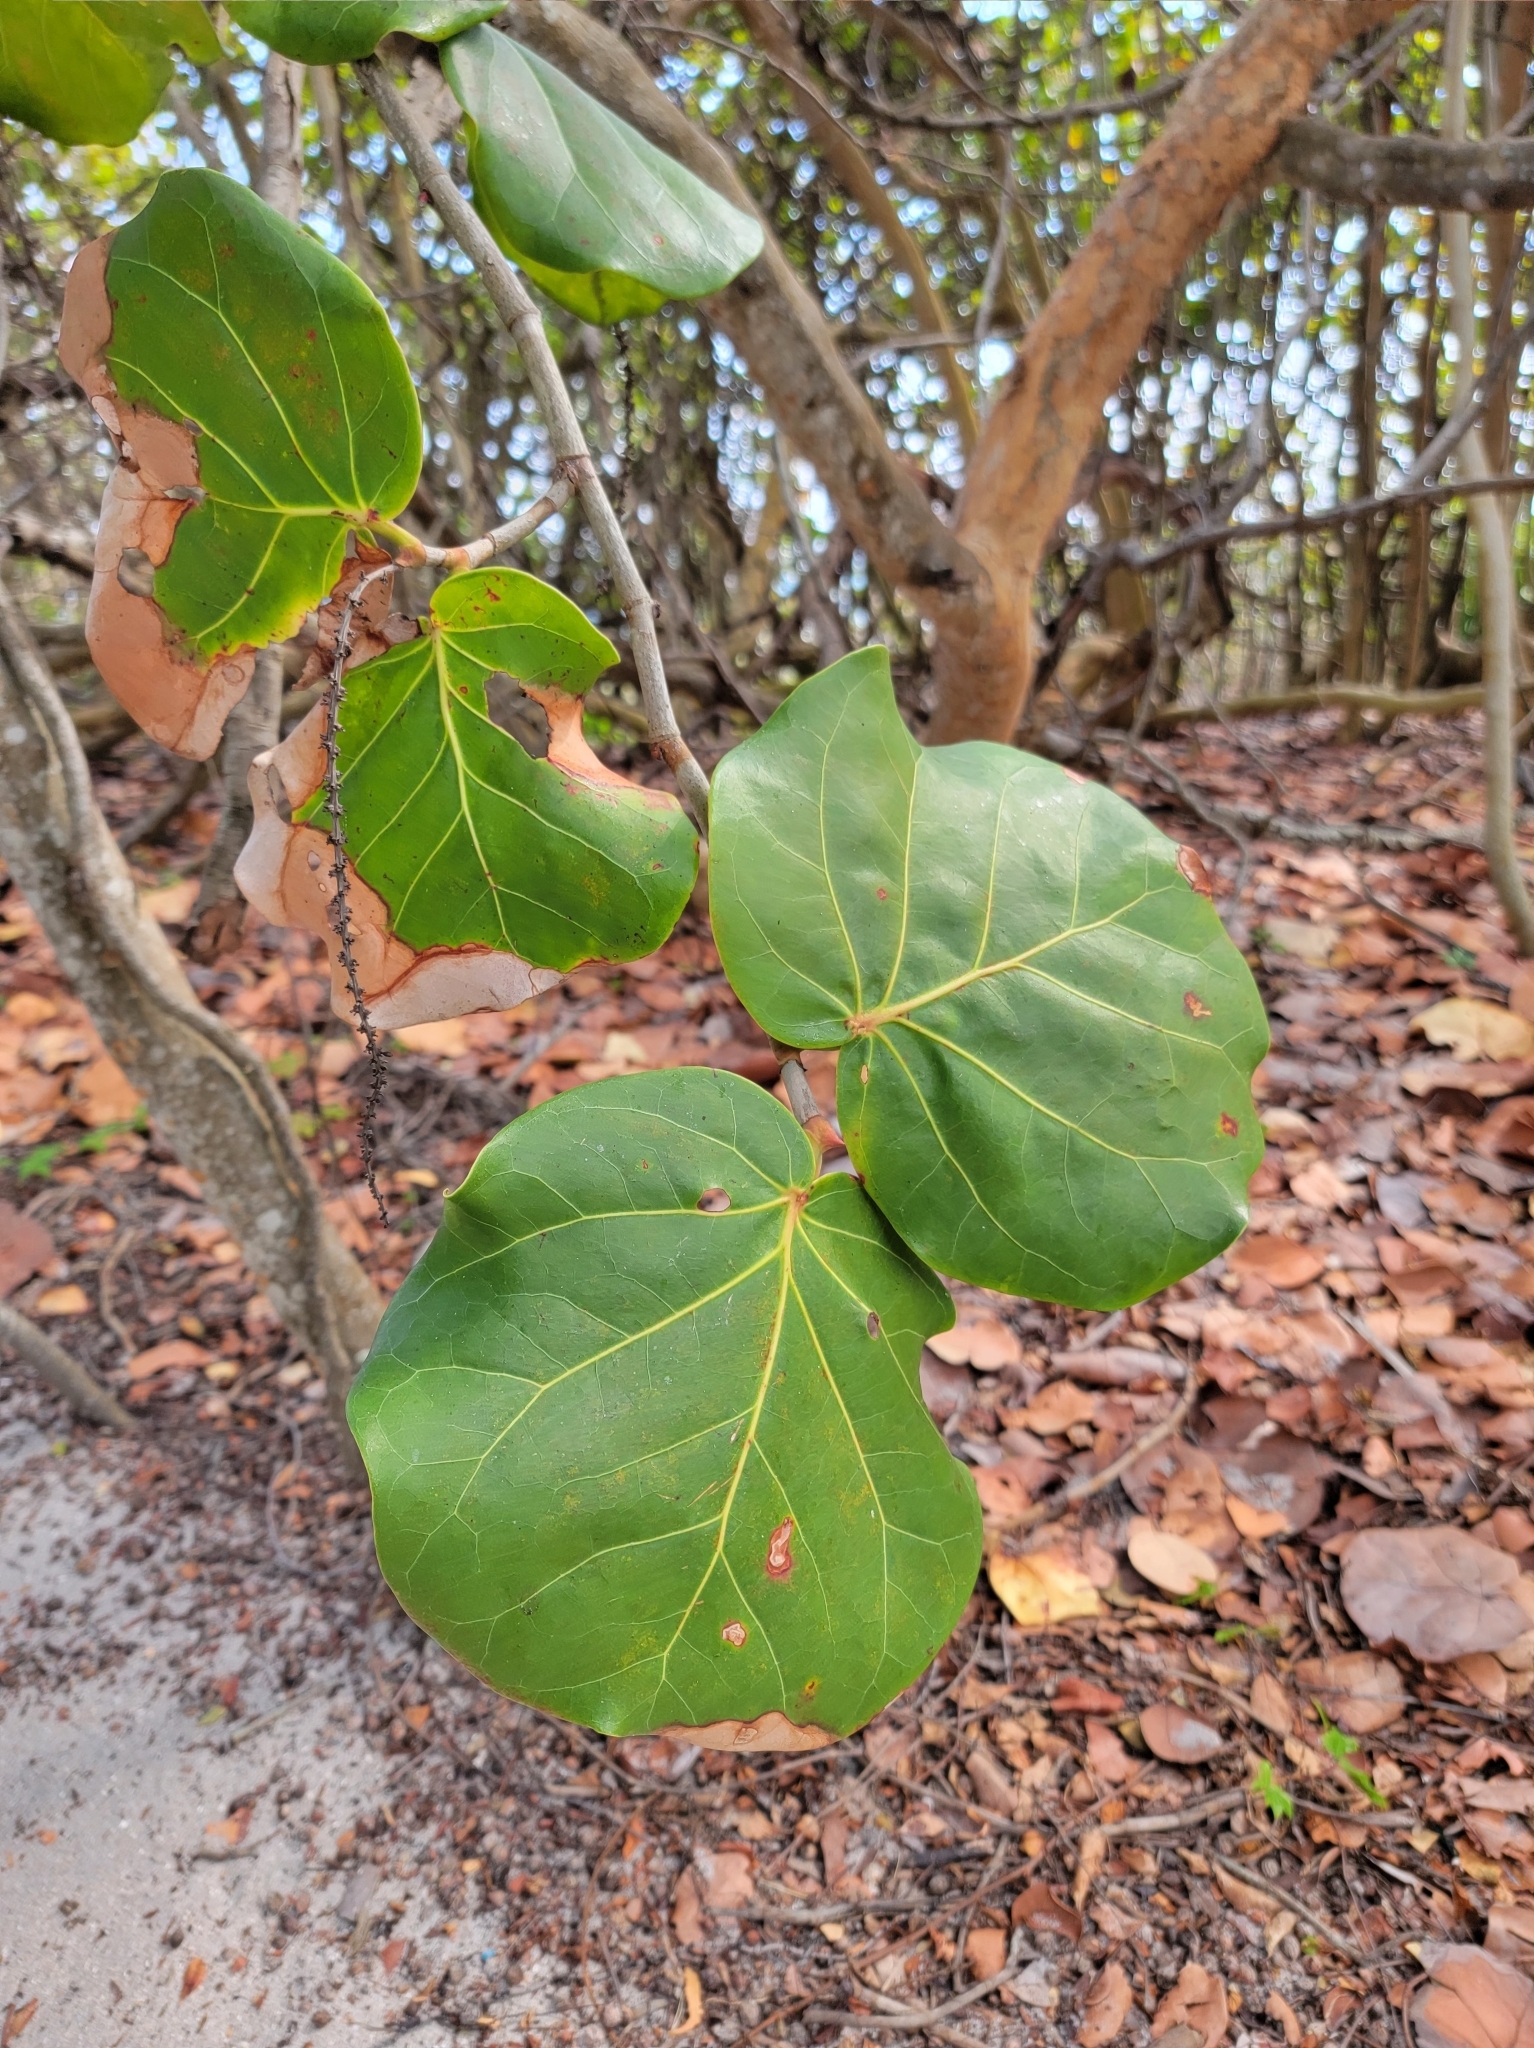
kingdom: Plantae
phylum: Tracheophyta
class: Magnoliopsida
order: Caryophyllales
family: Polygonaceae
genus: Coccoloba
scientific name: Coccoloba uvifera
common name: Seagrape
